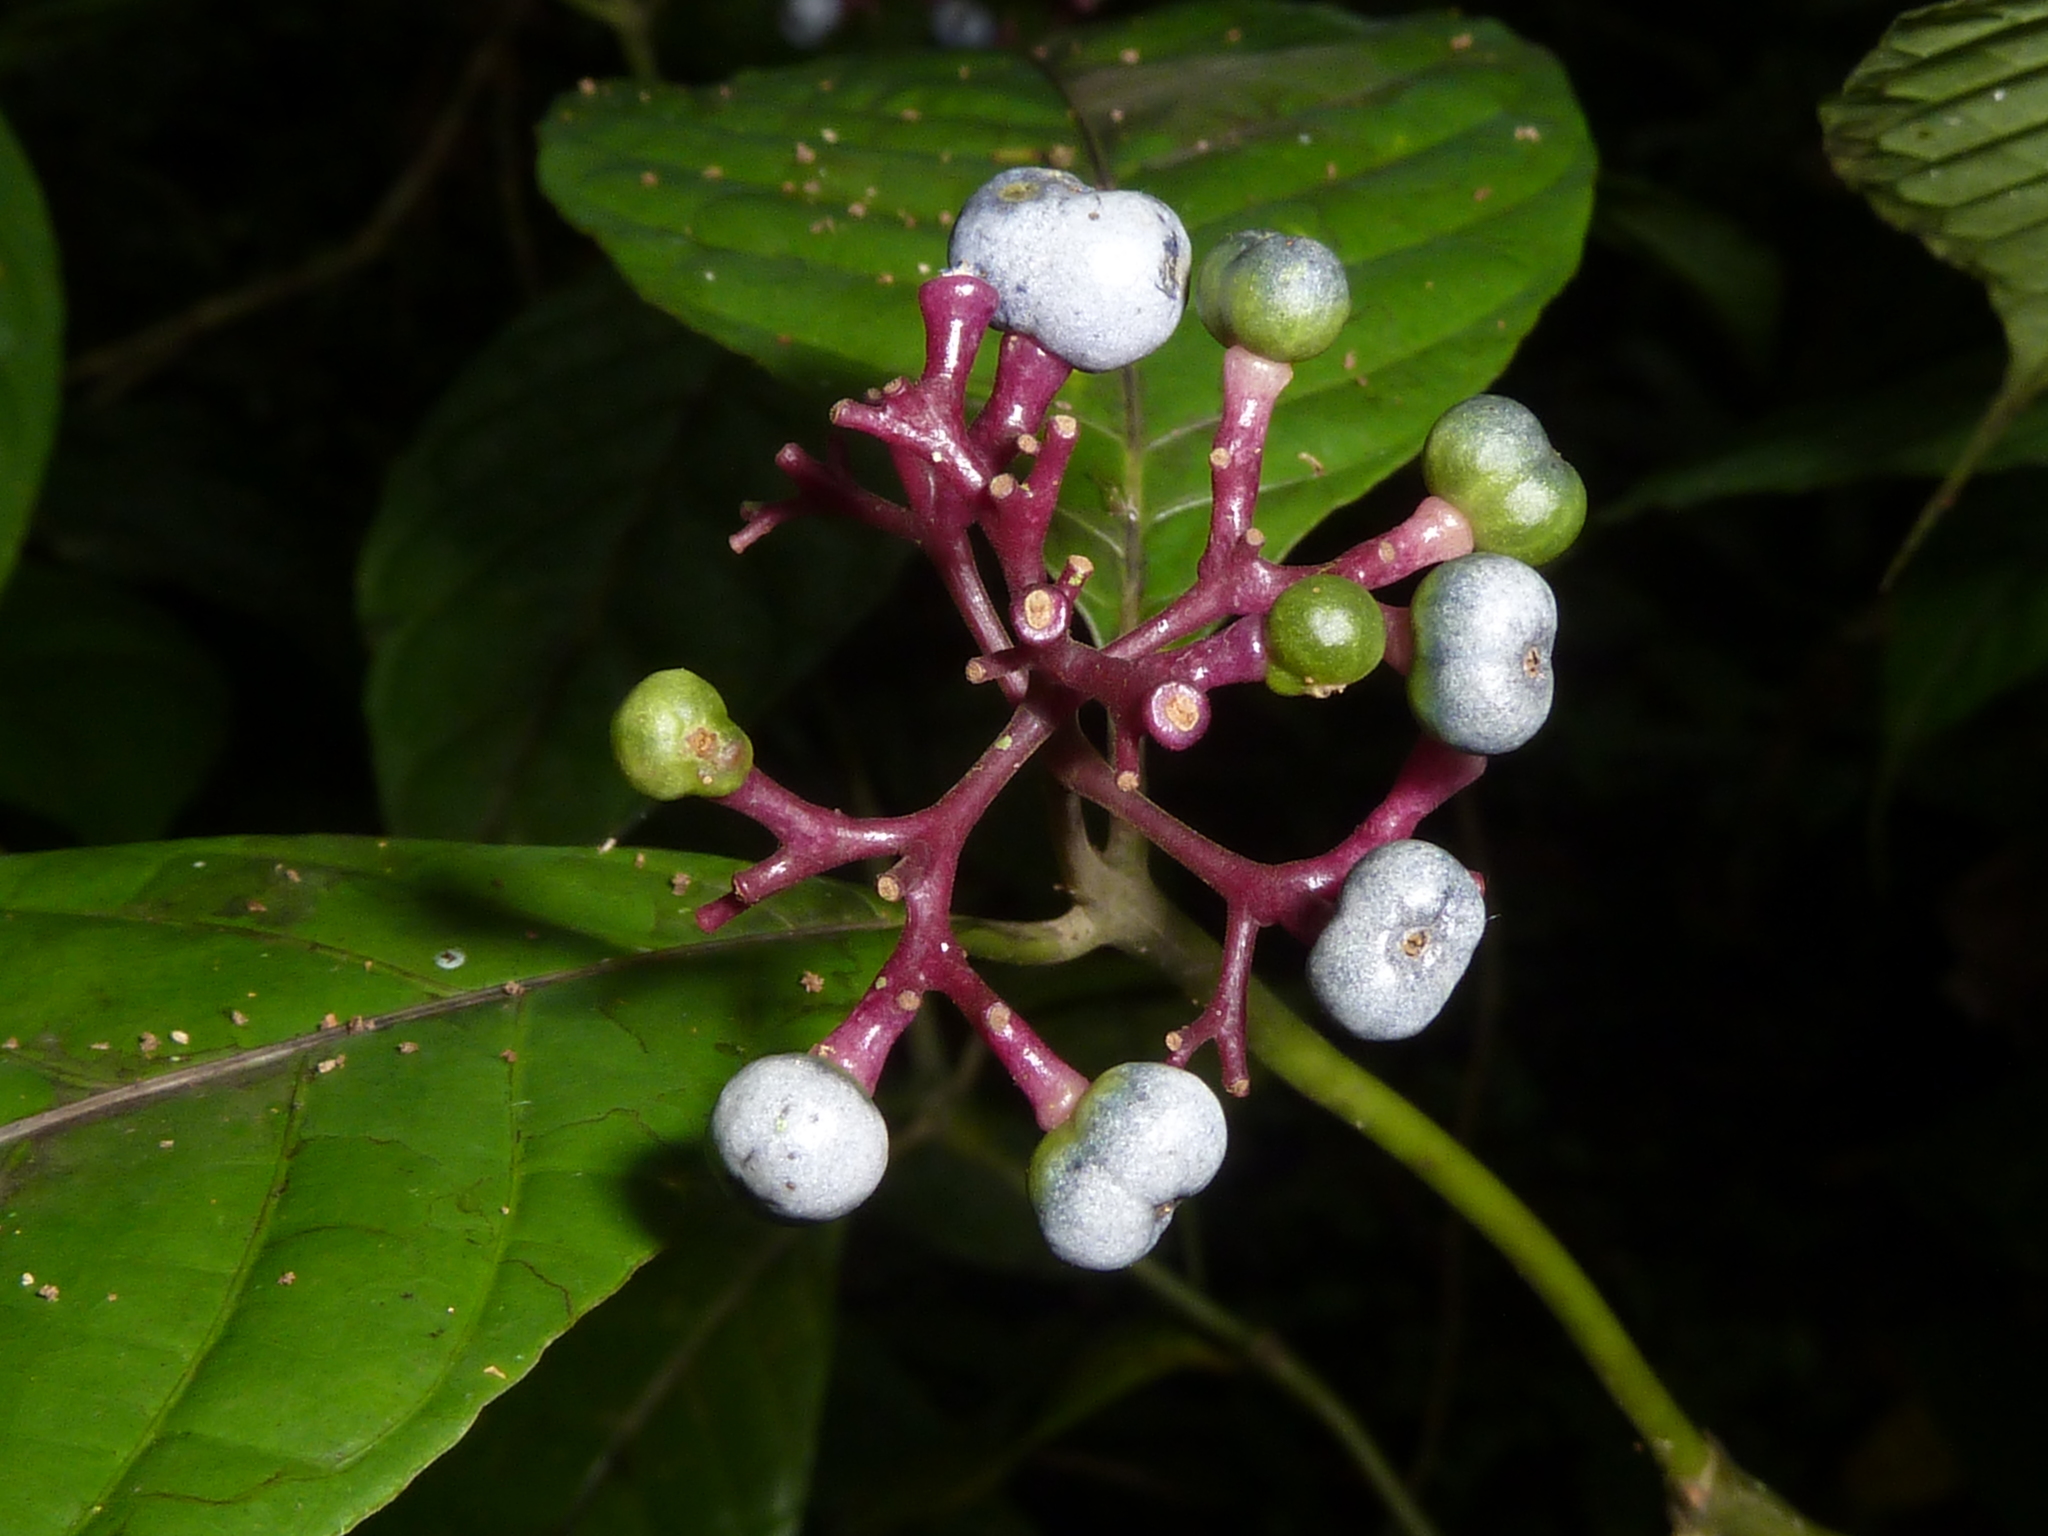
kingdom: Plantae
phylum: Tracheophyta
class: Magnoliopsida
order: Gentianales
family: Rubiaceae
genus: Palicourea
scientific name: Palicourea acuminata
